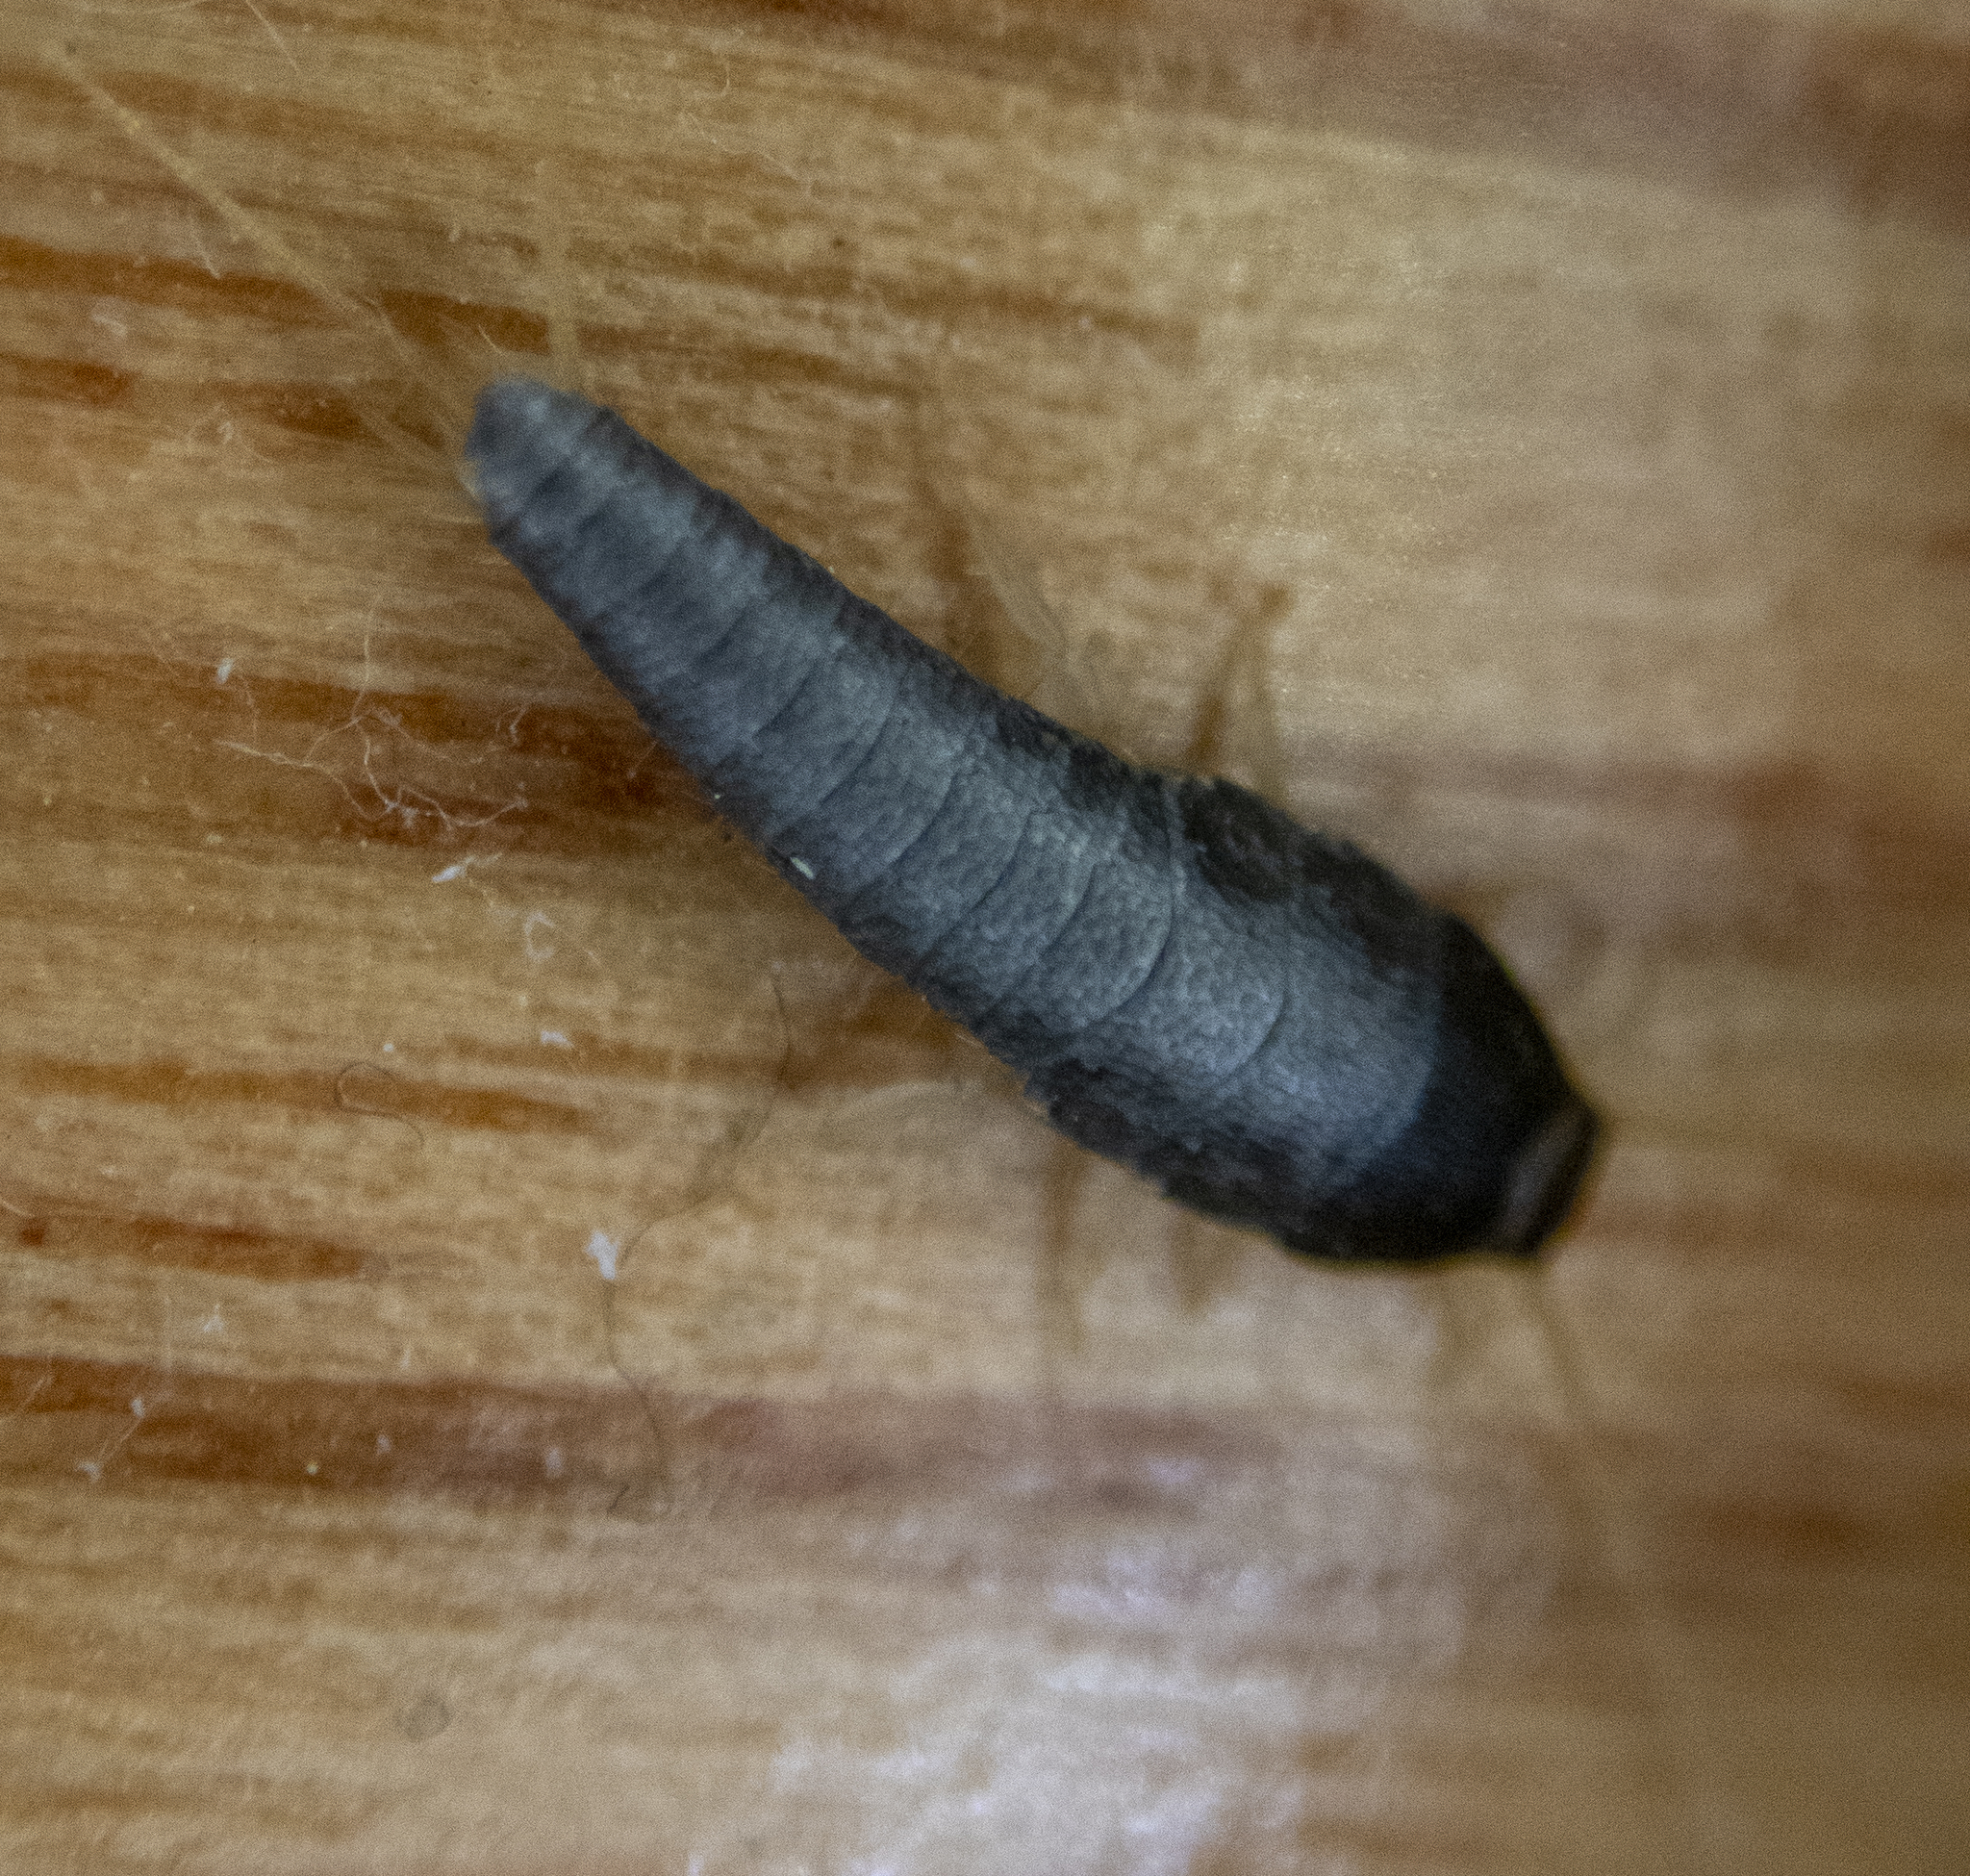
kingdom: Animalia
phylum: Arthropoda
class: Insecta
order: Zygentoma
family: Lepismatidae
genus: Lepisma
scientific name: Lepisma saccharinum
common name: Silverfish
